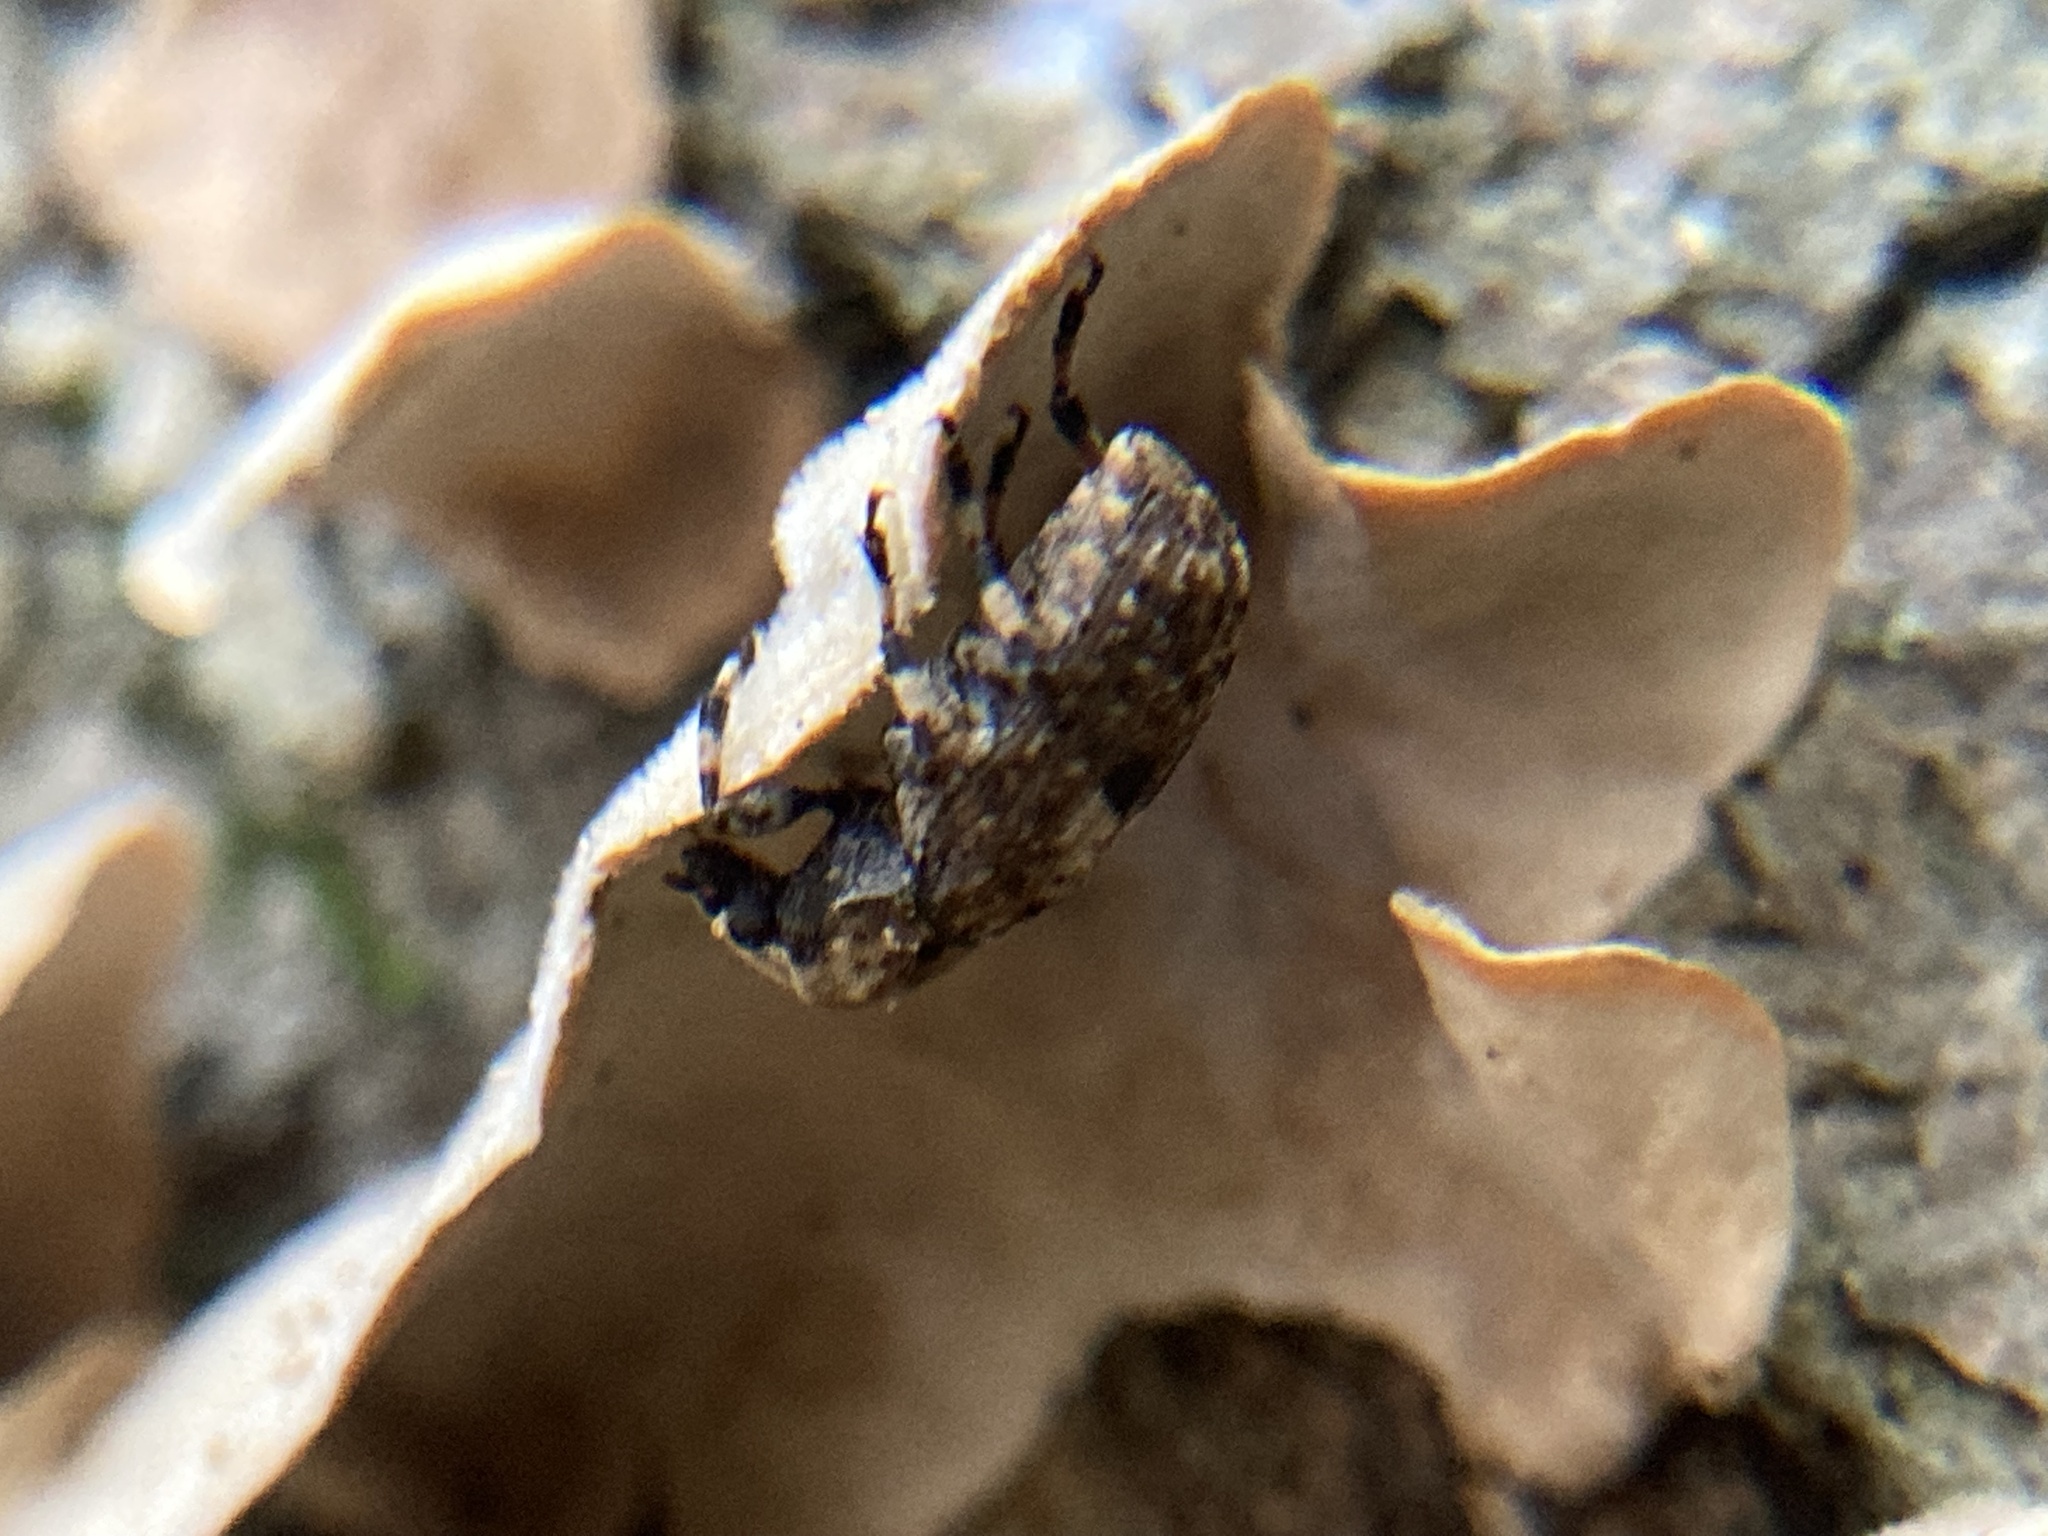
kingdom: Animalia
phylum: Arthropoda
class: Insecta
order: Coleoptera
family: Anthribidae
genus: Euparius
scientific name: Euparius marmoreus
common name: Marbled fungus weevil
